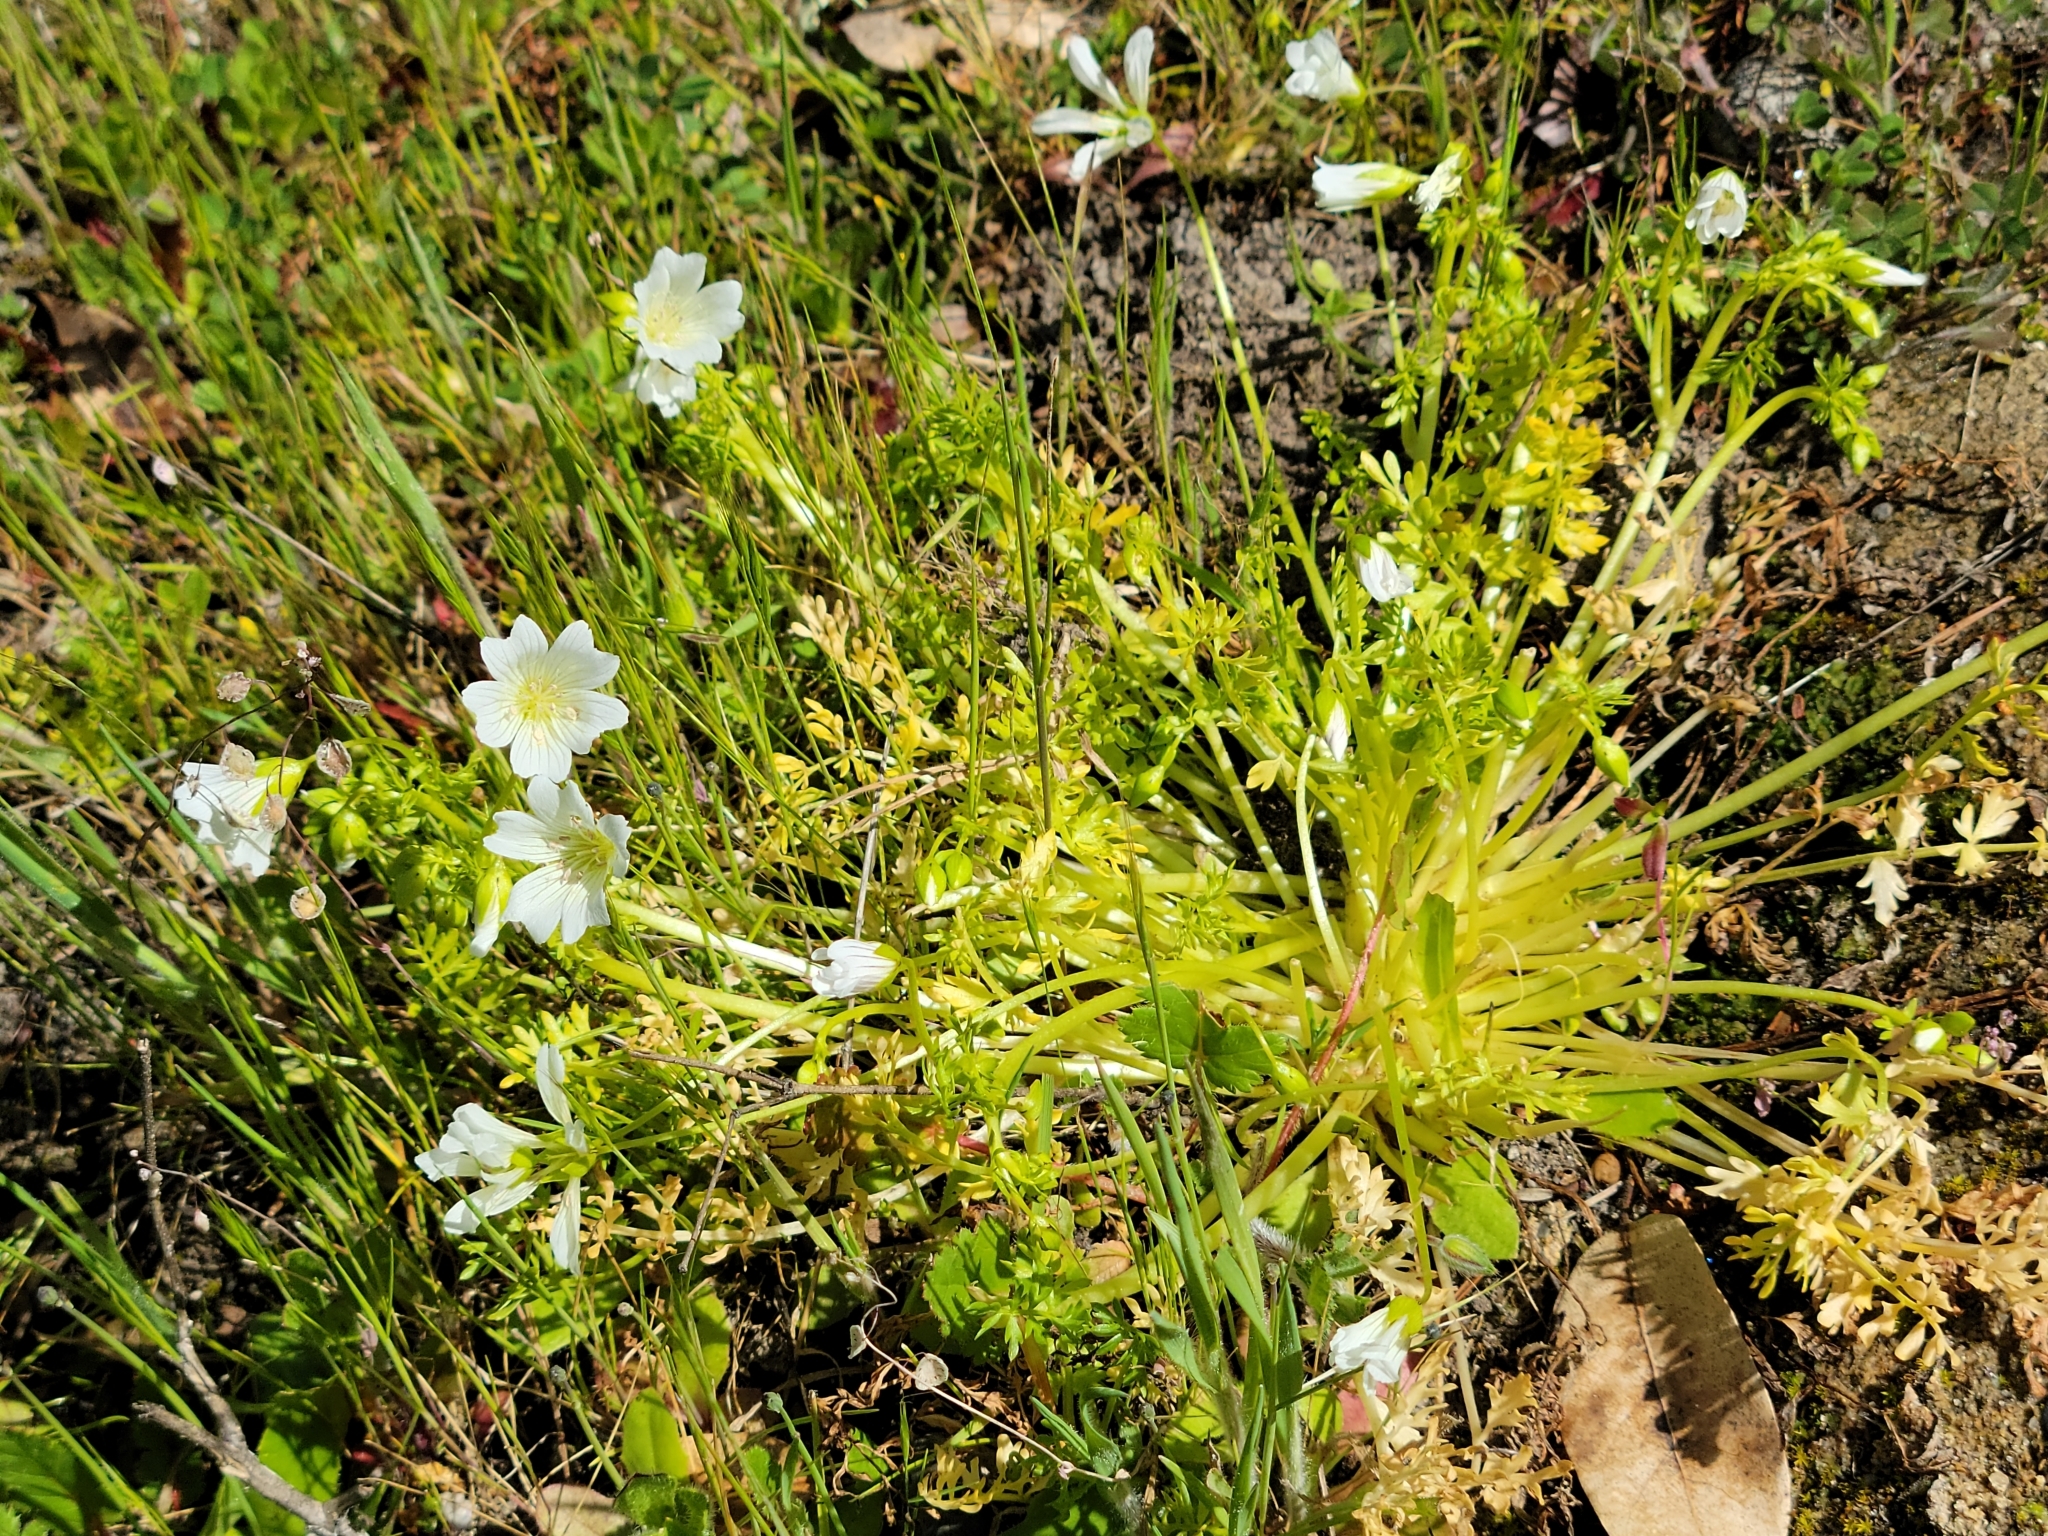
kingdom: Plantae
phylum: Tracheophyta
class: Magnoliopsida
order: Brassicales
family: Limnanthaceae
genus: Limnanthes
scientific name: Limnanthes douglasii
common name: Meadow-foam
